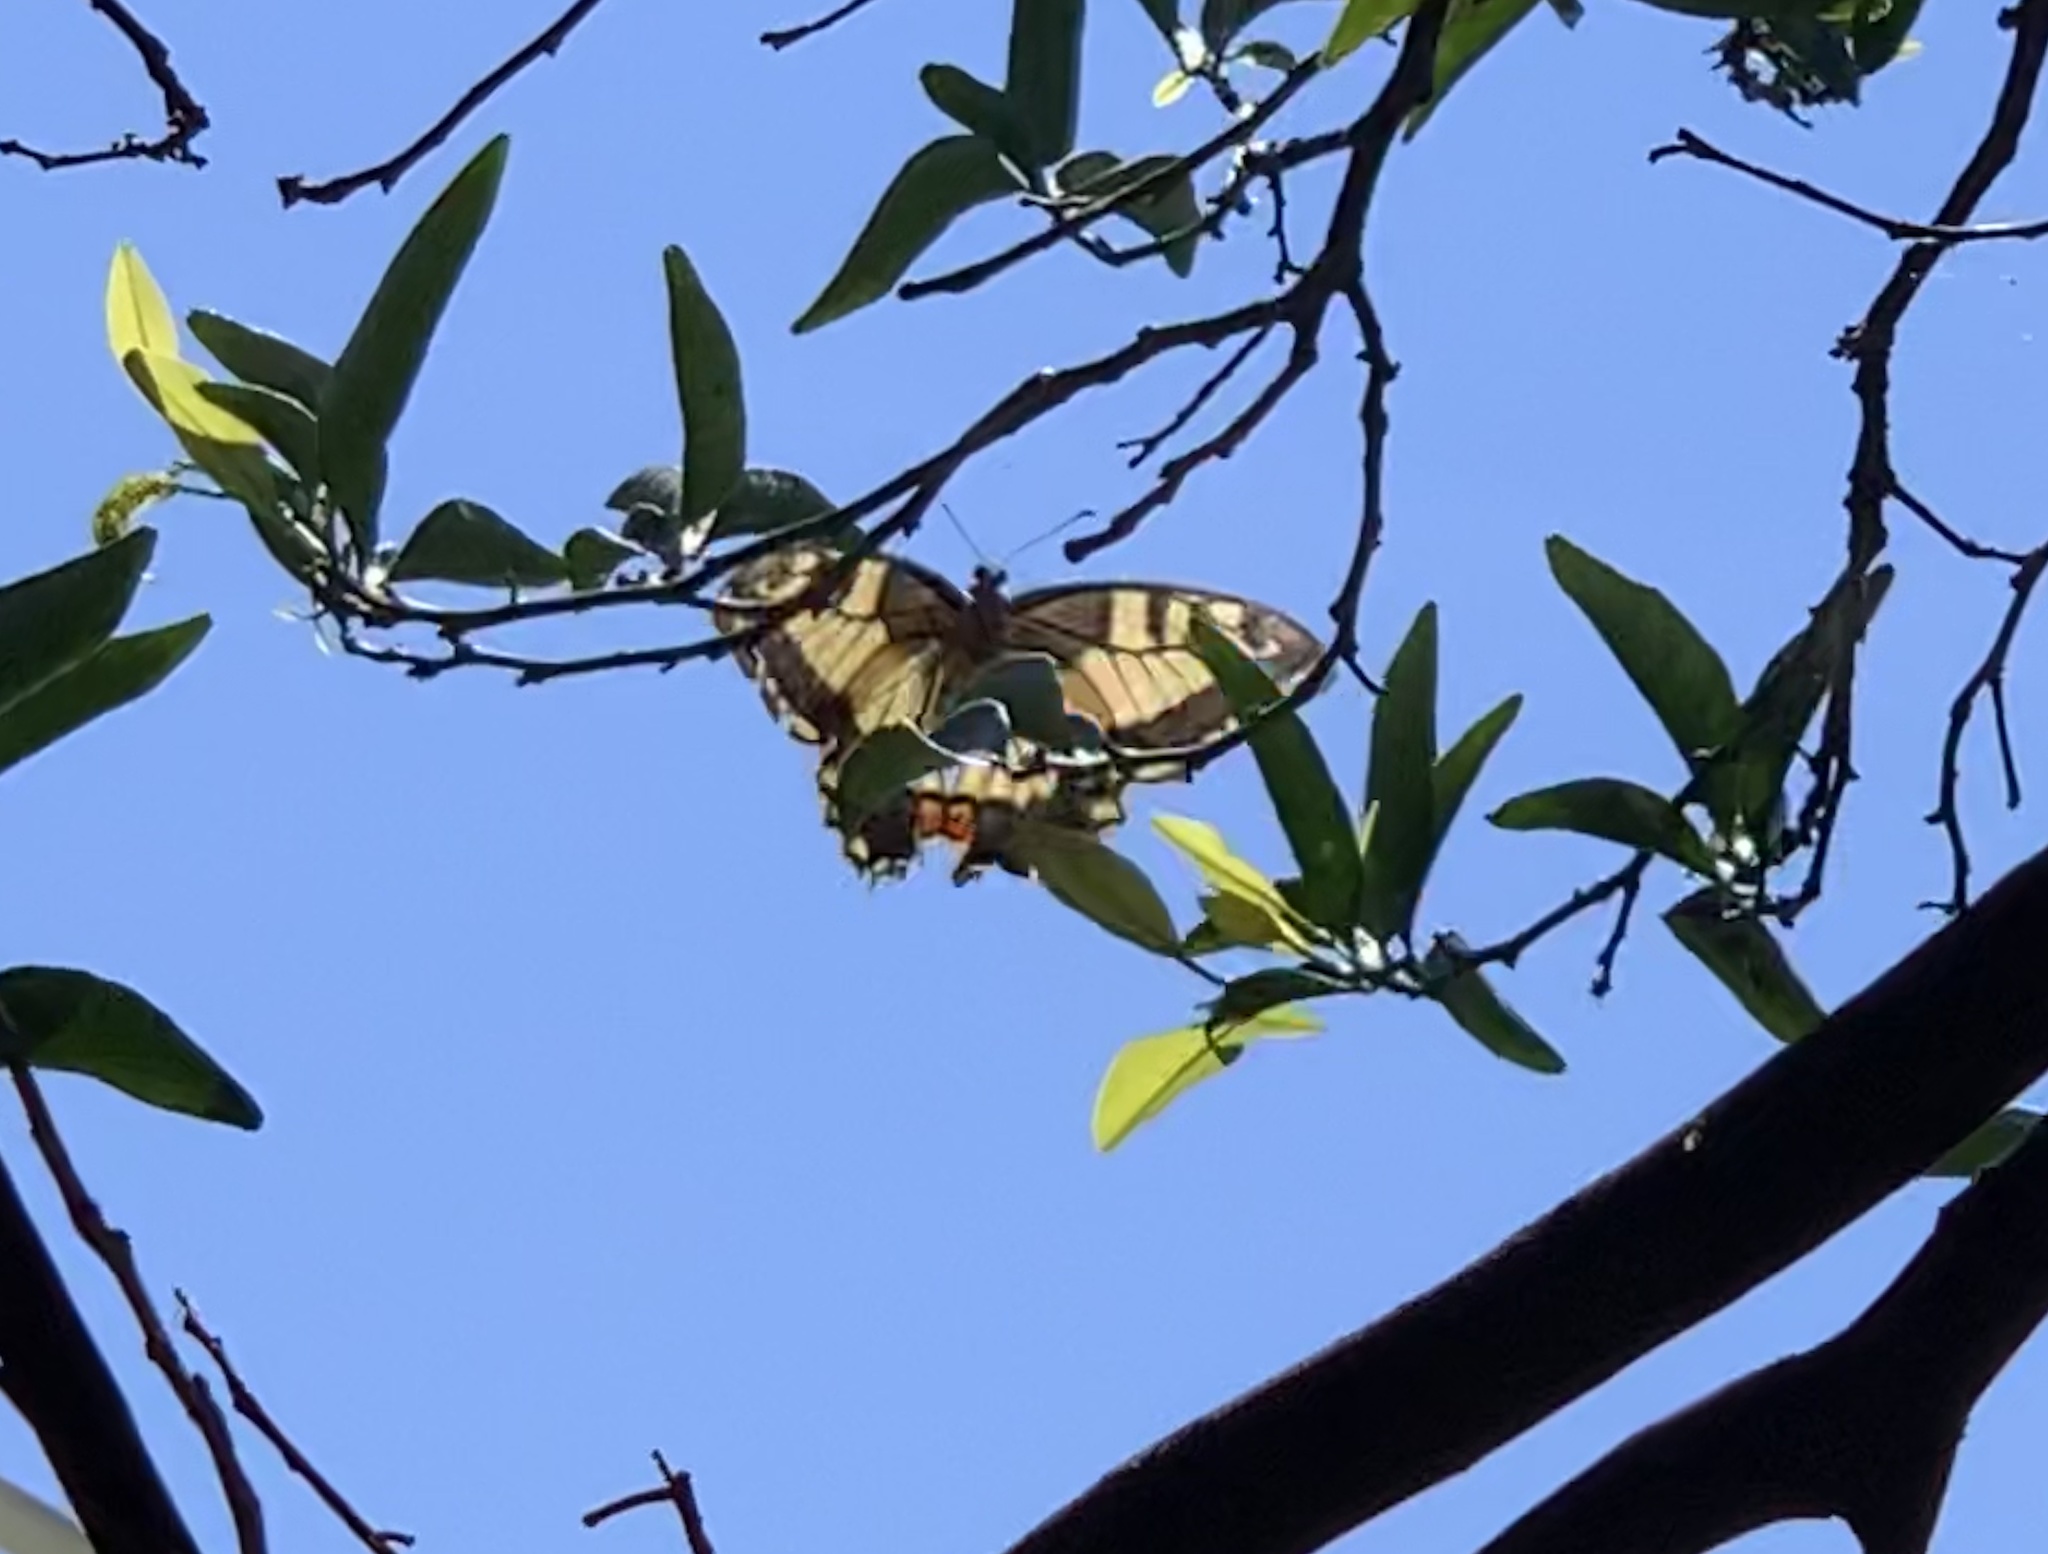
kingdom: Animalia
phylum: Arthropoda
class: Insecta
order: Lepidoptera
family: Papilionidae
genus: Papilio
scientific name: Papilio machaon
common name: Swallowtail
